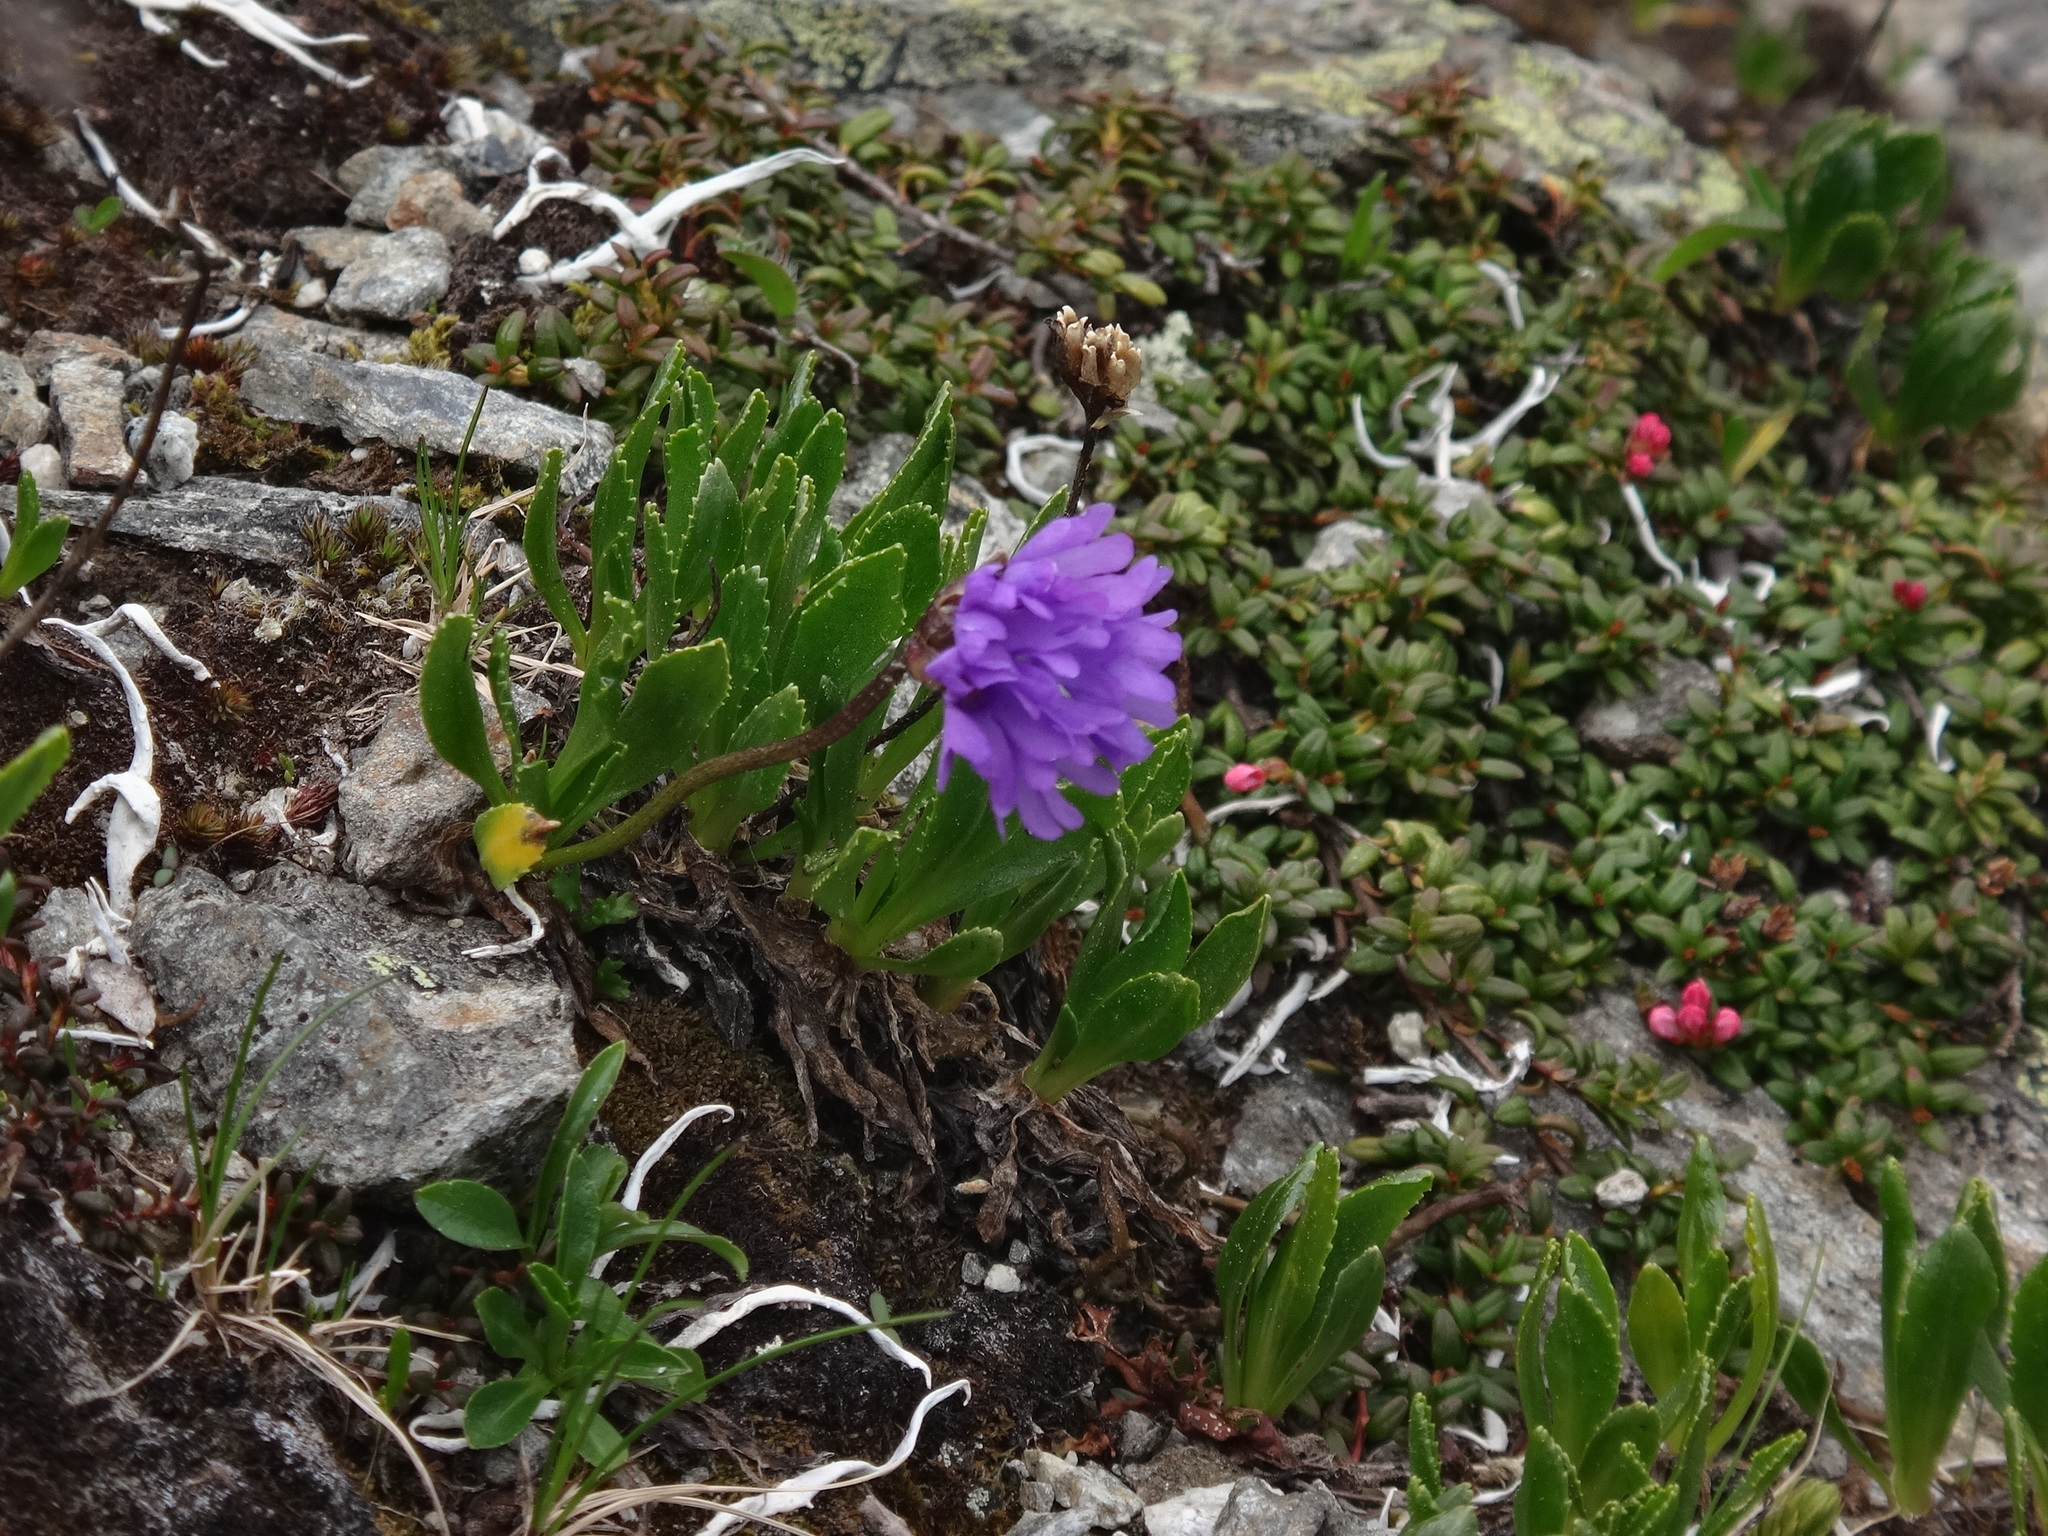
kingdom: Plantae
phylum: Tracheophyta
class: Magnoliopsida
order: Ericales
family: Primulaceae
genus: Primula
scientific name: Primula glutinosa
